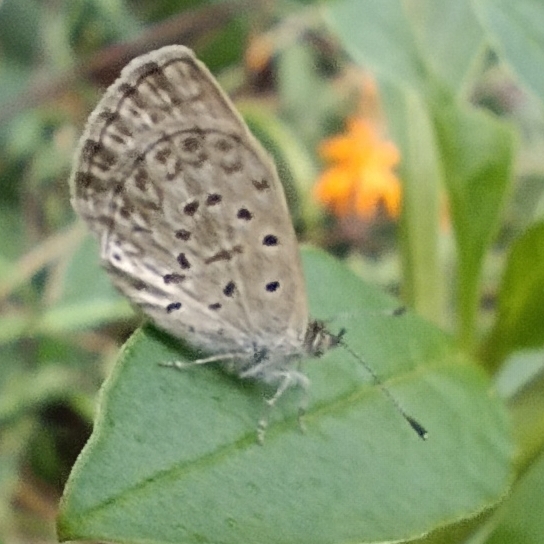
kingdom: Animalia
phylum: Arthropoda
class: Insecta
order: Lepidoptera
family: Lycaenidae
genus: Zizeeria
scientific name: Zizeeria knysna
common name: African grass blue
